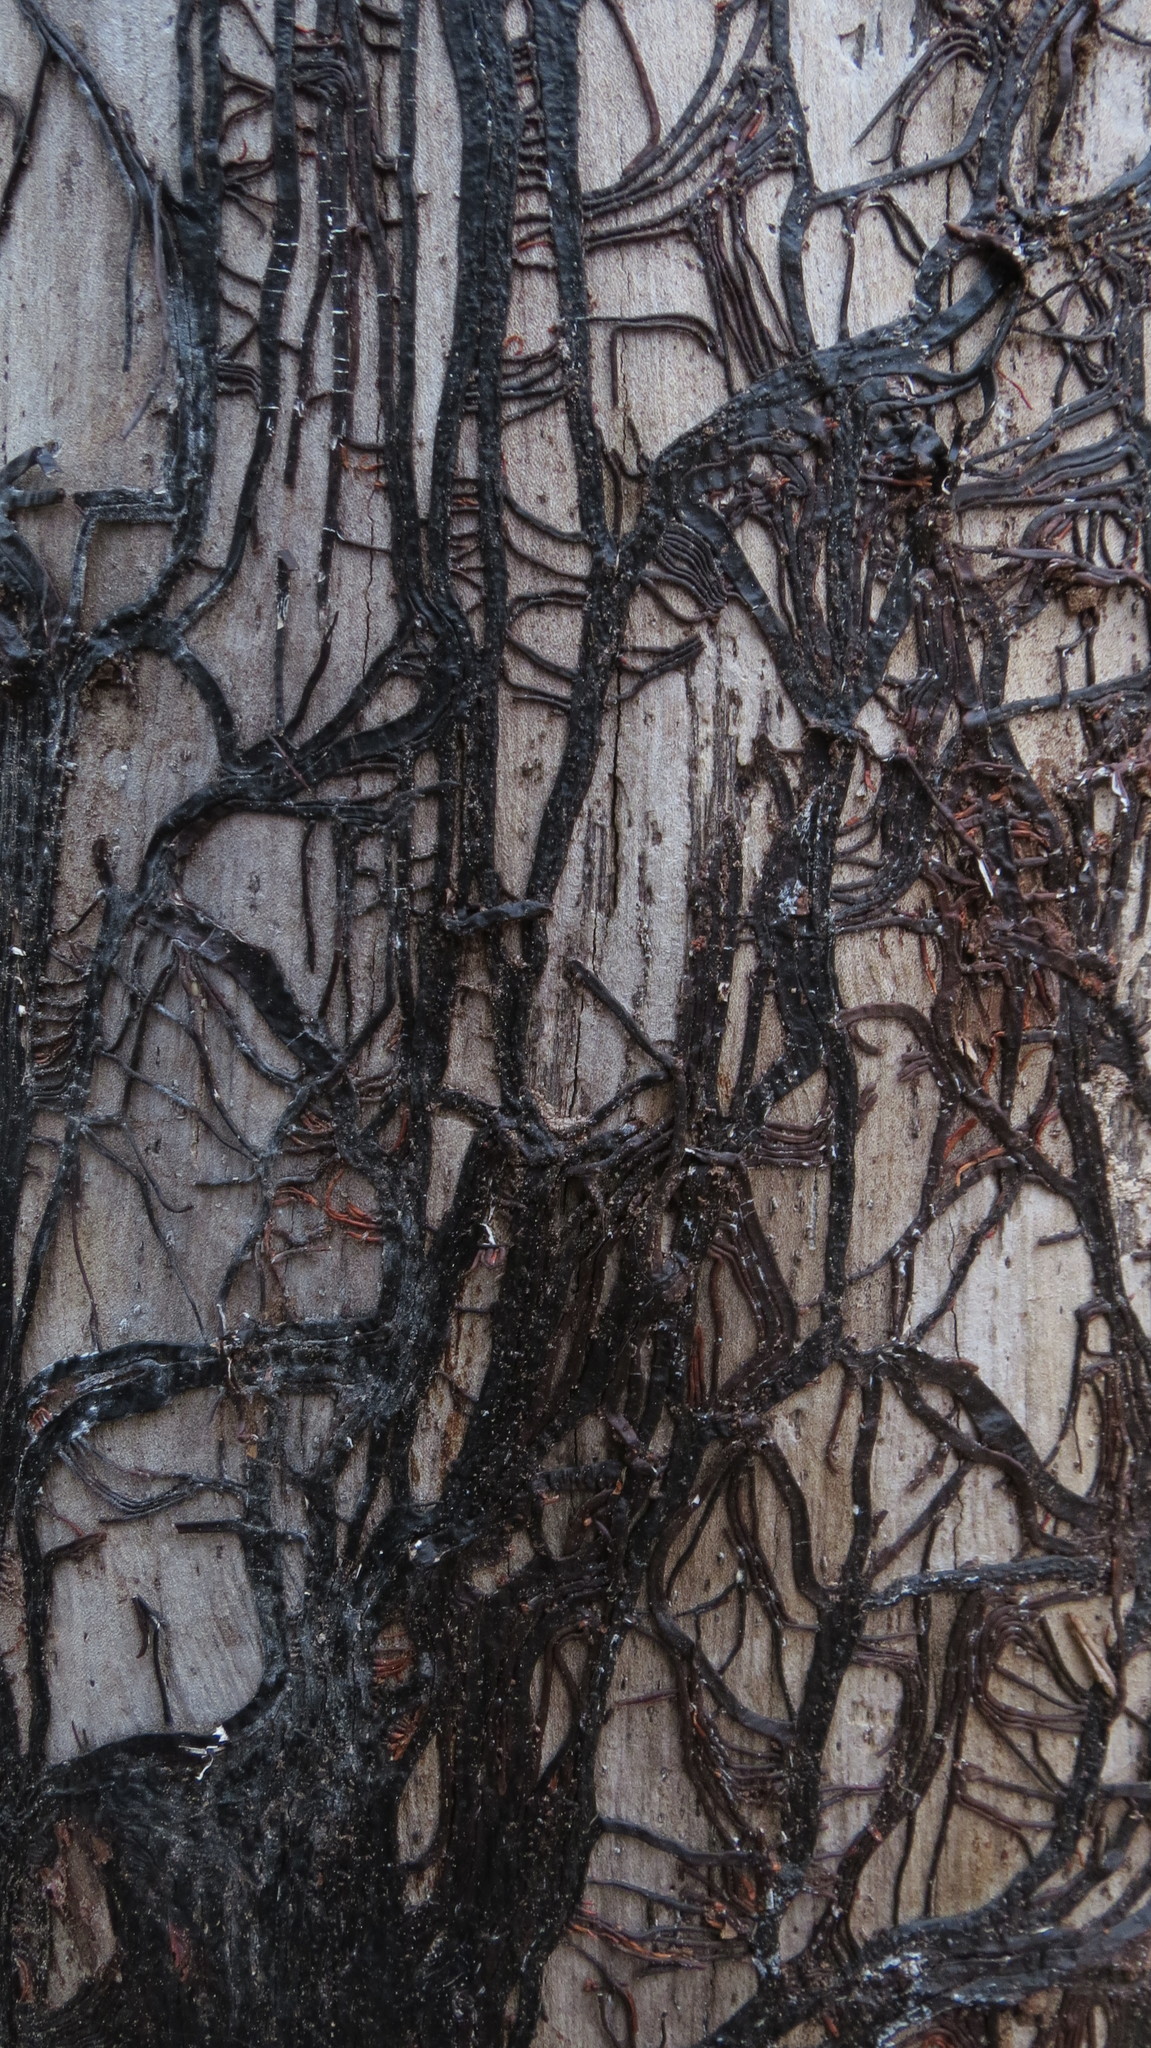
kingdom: Fungi
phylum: Basidiomycota
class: Agaricomycetes
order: Agaricales
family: Physalacriaceae
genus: Armillaria
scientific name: Armillaria
